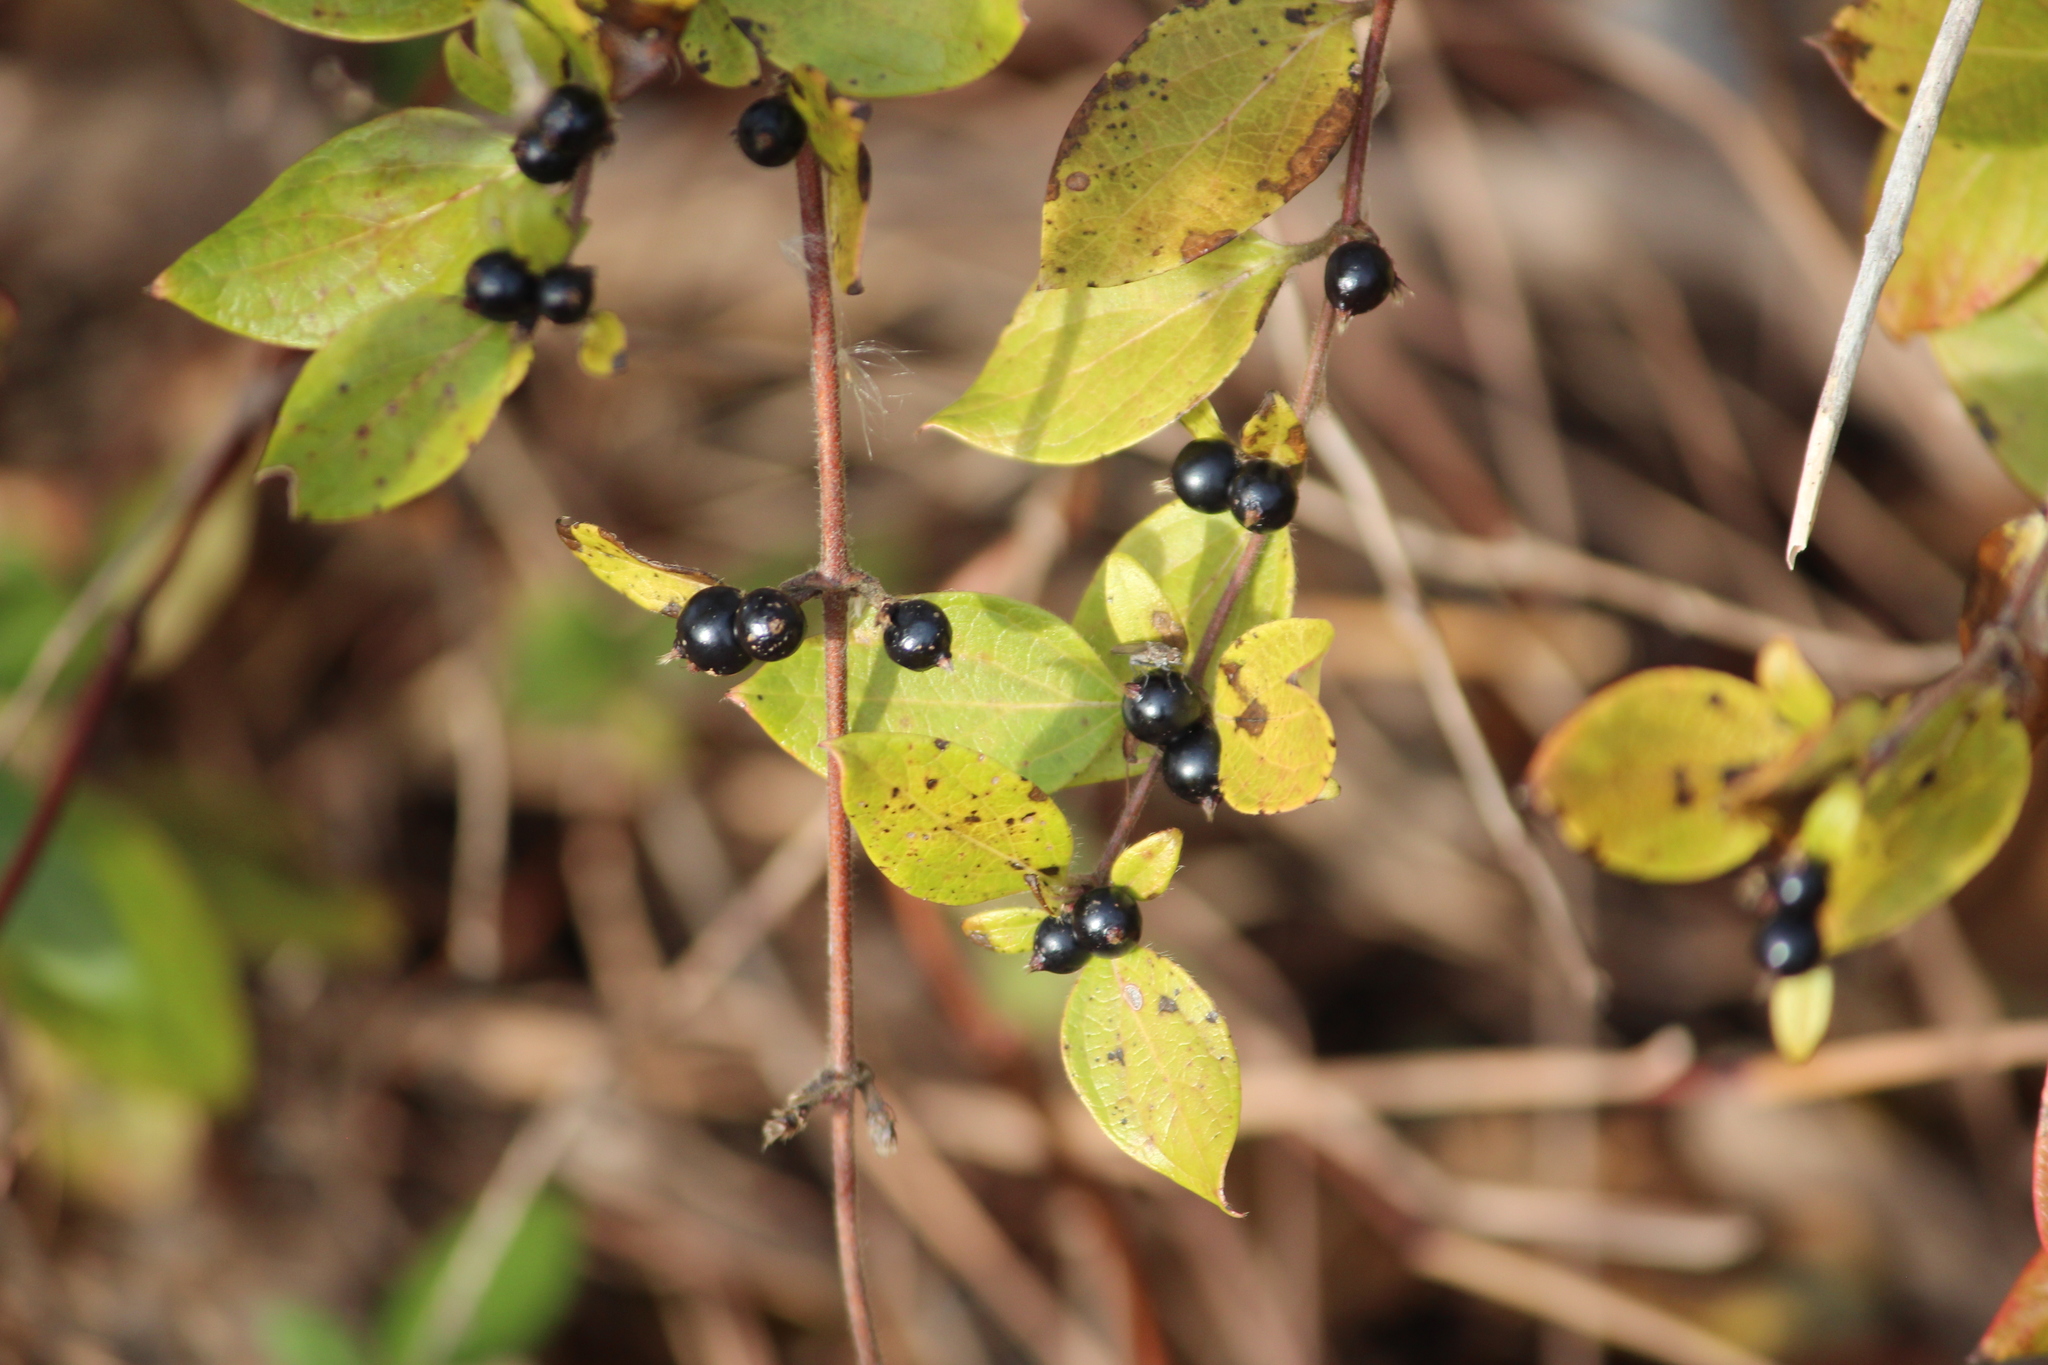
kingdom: Plantae
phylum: Tracheophyta
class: Magnoliopsida
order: Dipsacales
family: Caprifoliaceae
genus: Lonicera
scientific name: Lonicera japonica
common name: Japanese honeysuckle
